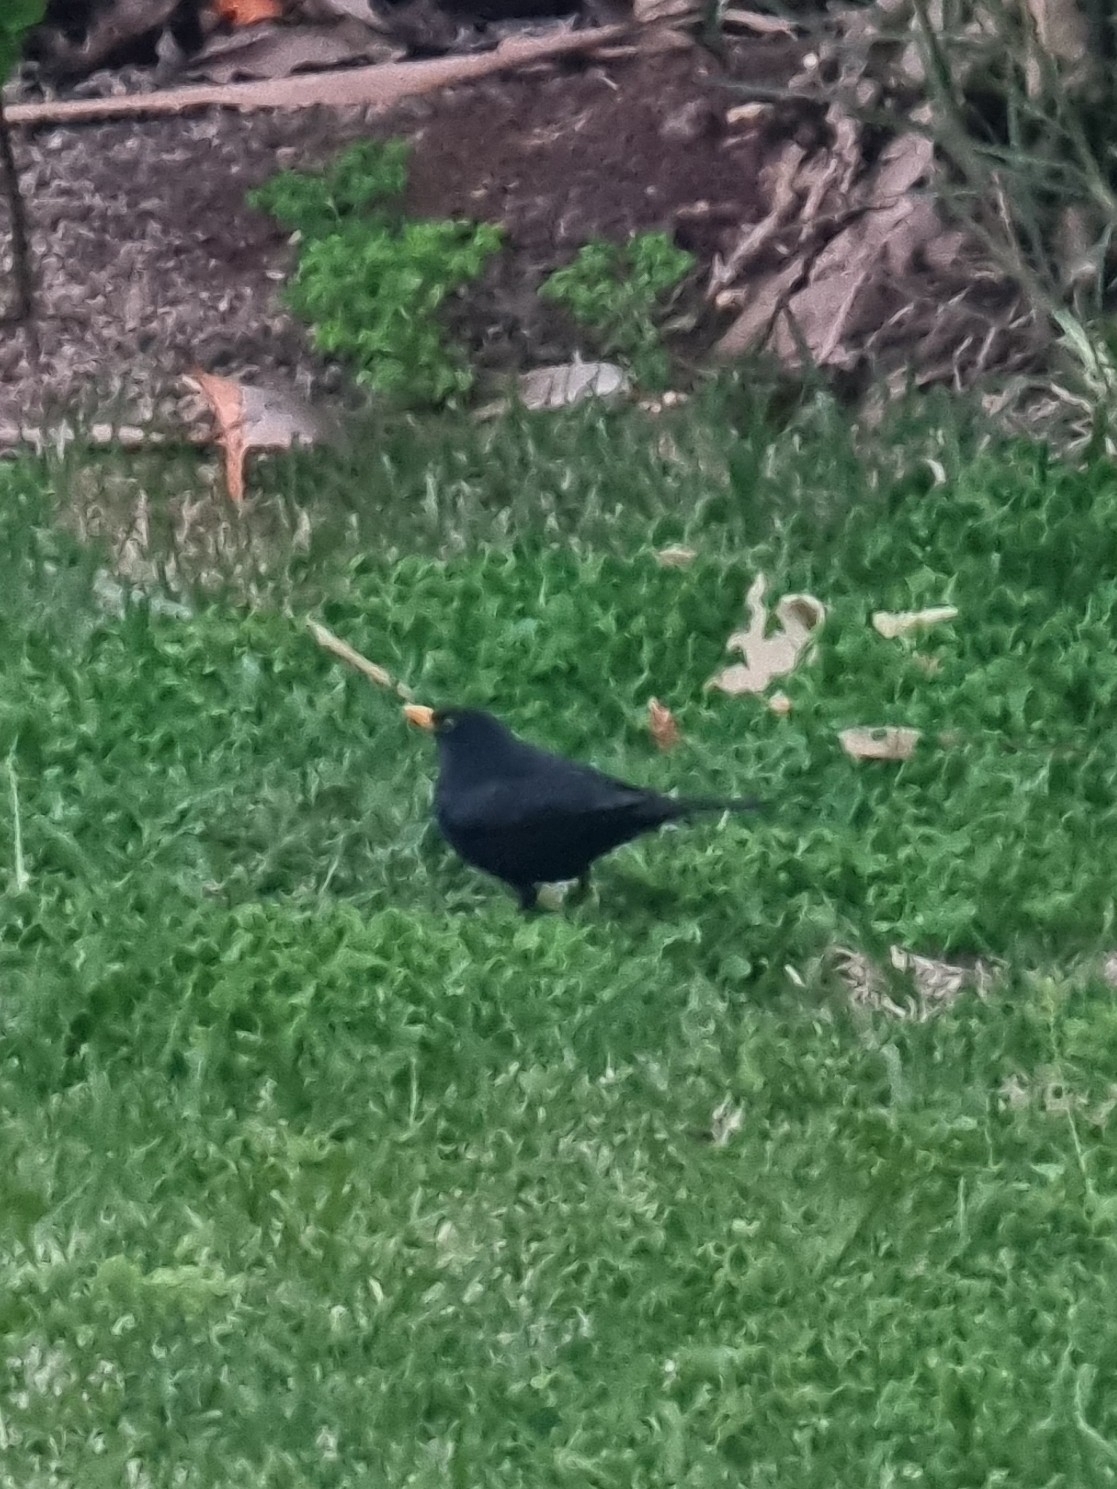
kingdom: Animalia
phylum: Chordata
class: Aves
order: Passeriformes
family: Turdidae
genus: Turdus
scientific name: Turdus merula
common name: Common blackbird
